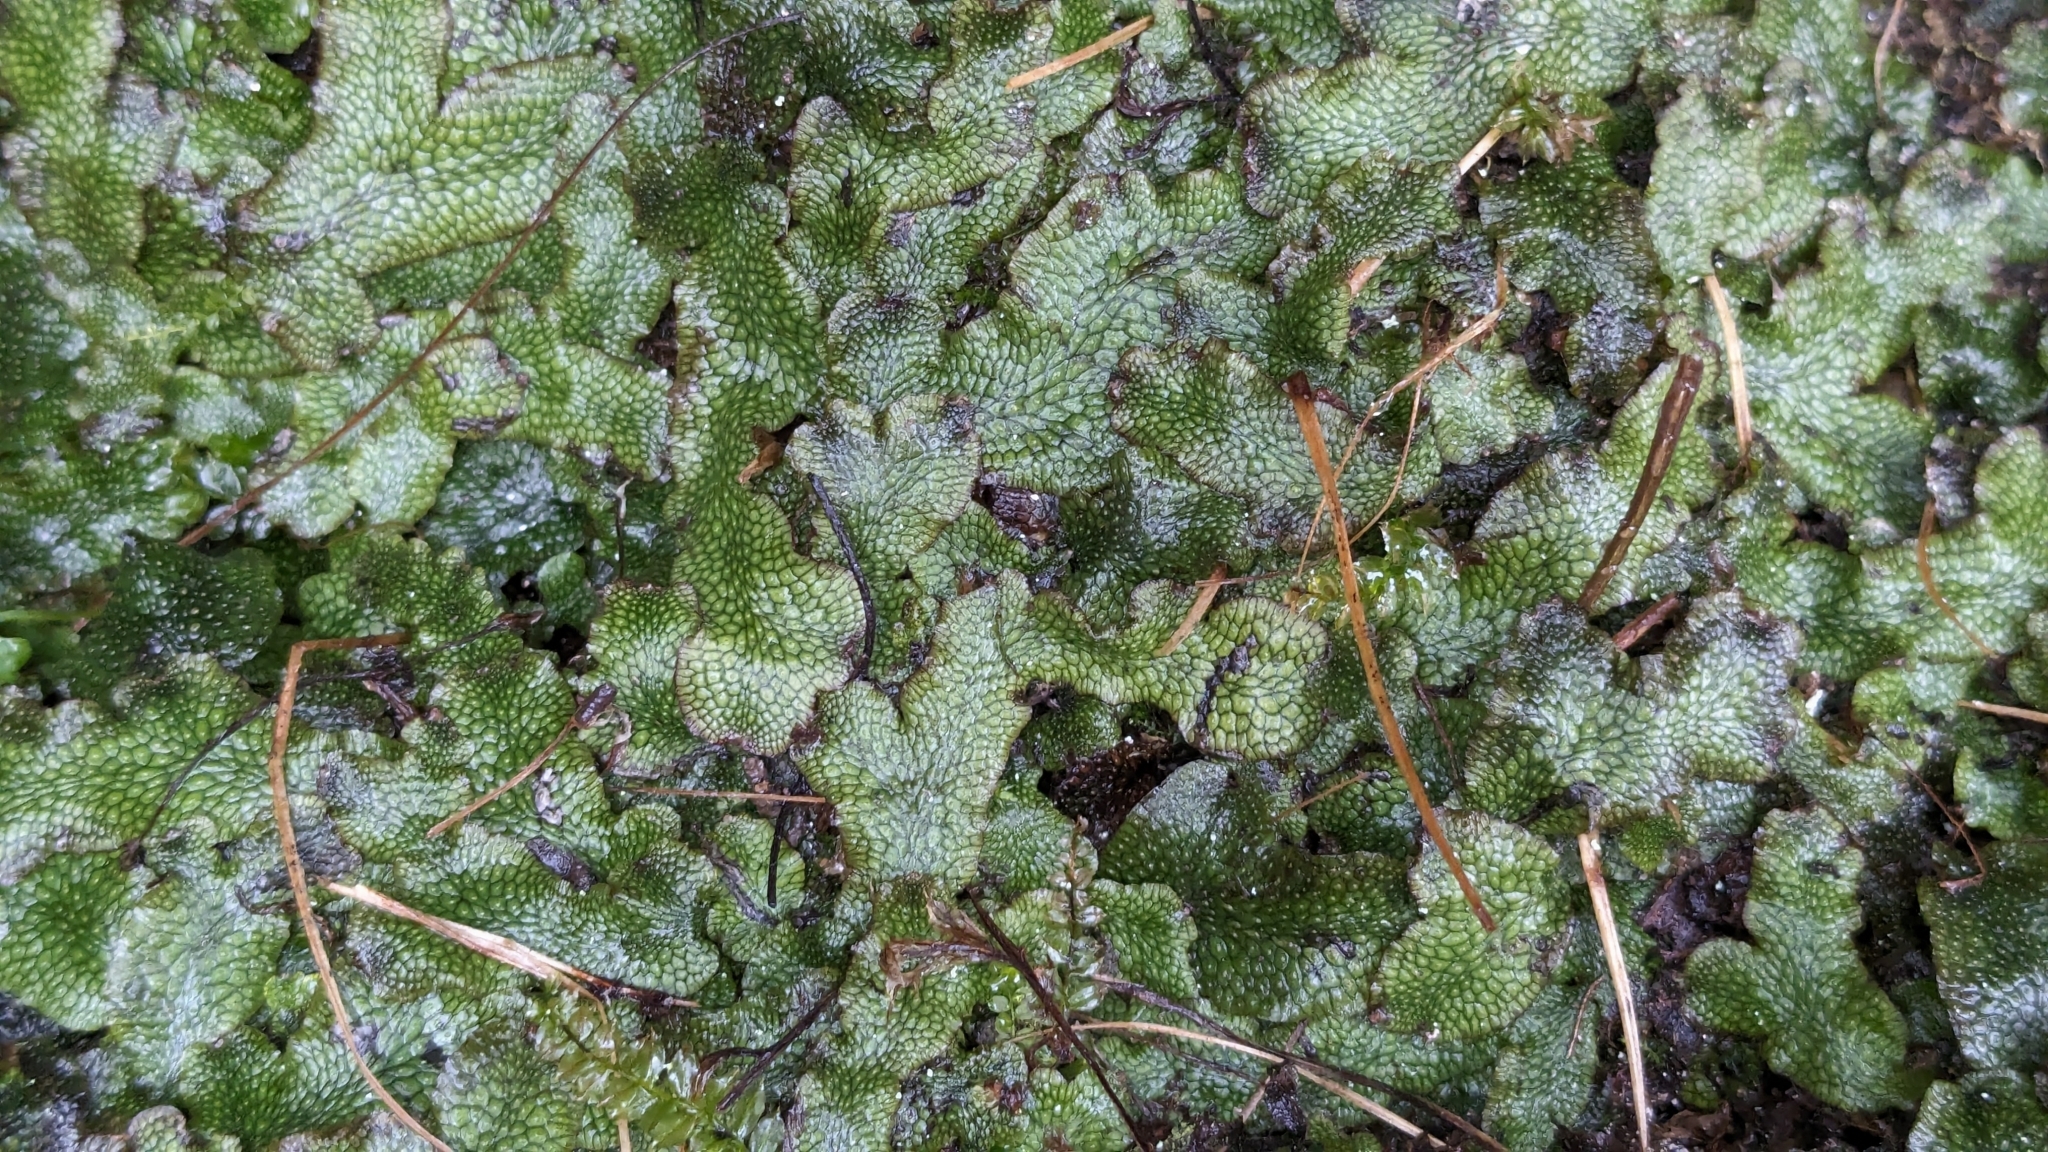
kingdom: Plantae
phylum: Marchantiophyta
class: Marchantiopsida
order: Marchantiales
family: Conocephalaceae
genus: Conocephalum
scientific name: Conocephalum salebrosum
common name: Cat-tongue liverwort
